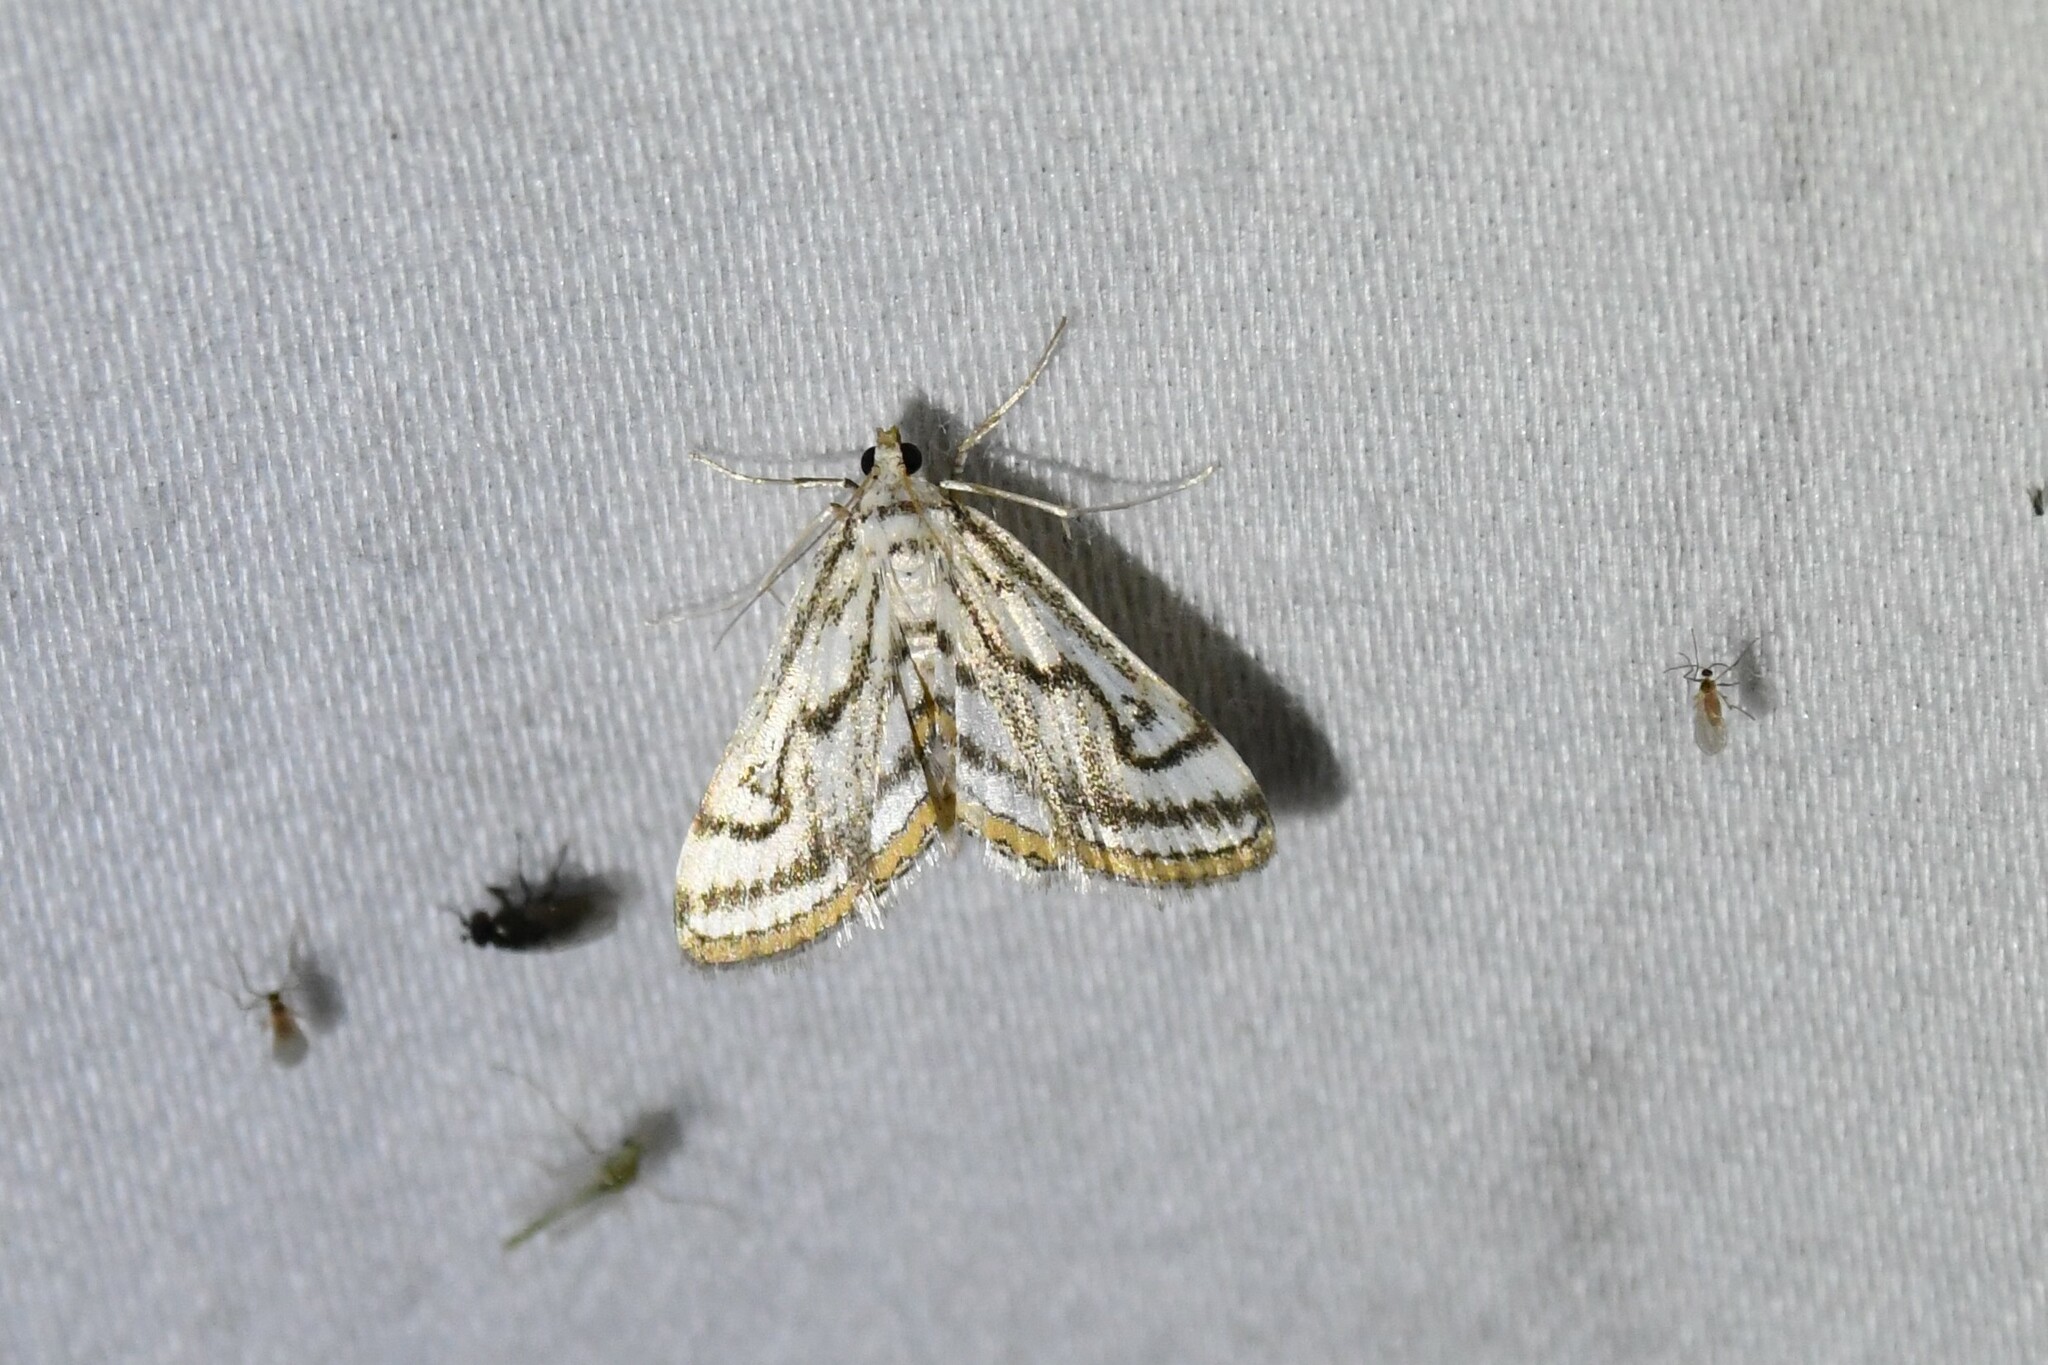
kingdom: Animalia
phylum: Arthropoda
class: Insecta
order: Lepidoptera
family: Crambidae
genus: Parapoynx
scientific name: Parapoynx badiusalis
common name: Chestnut-marked pondweed moth
